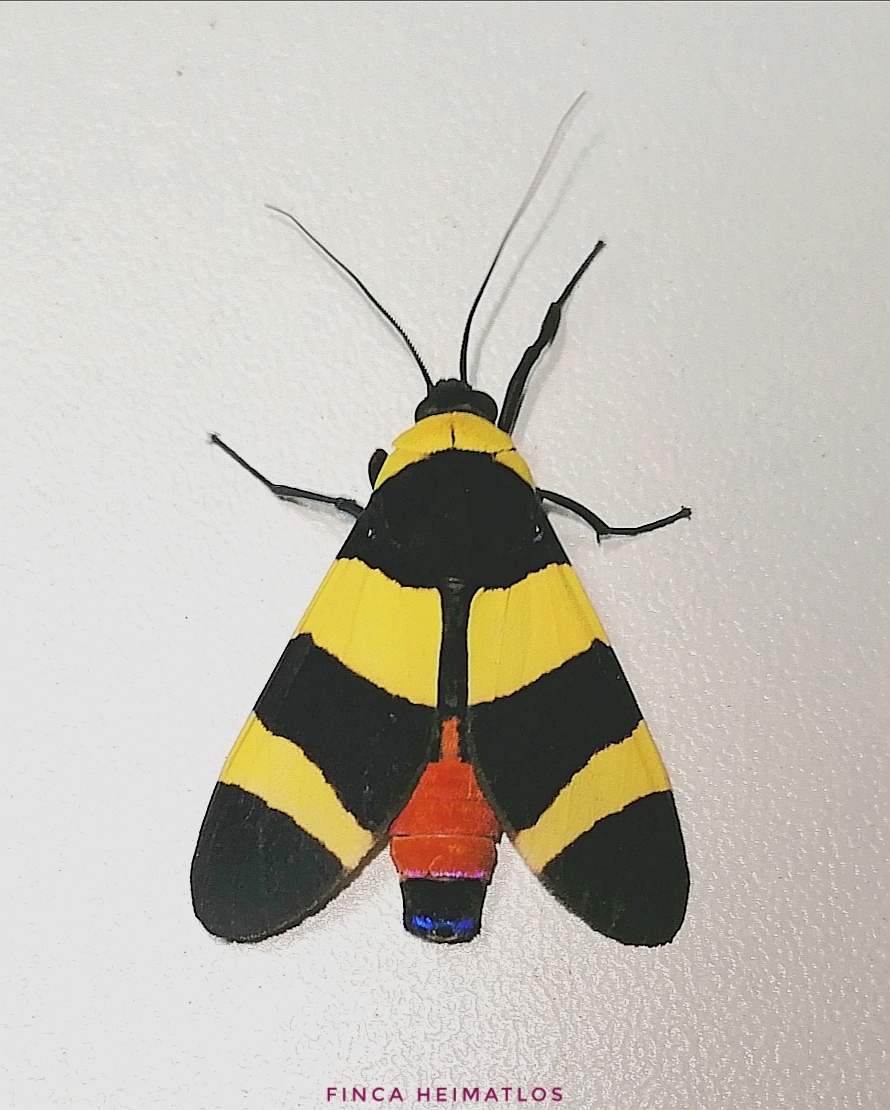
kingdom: Animalia
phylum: Arthropoda
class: Insecta
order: Lepidoptera
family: Erebidae
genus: Viviennea
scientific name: Viviennea moma
